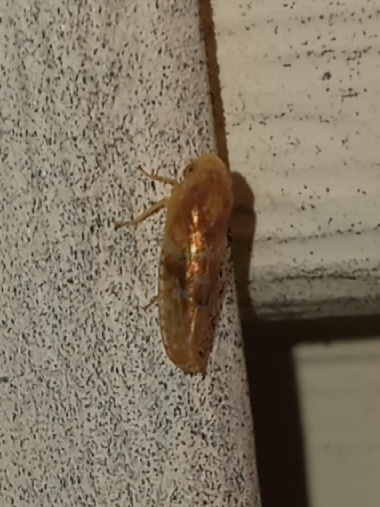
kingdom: Animalia
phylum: Arthropoda
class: Insecta
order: Hemiptera
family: Cicadellidae
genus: Fitchana
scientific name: Fitchana vitellina
